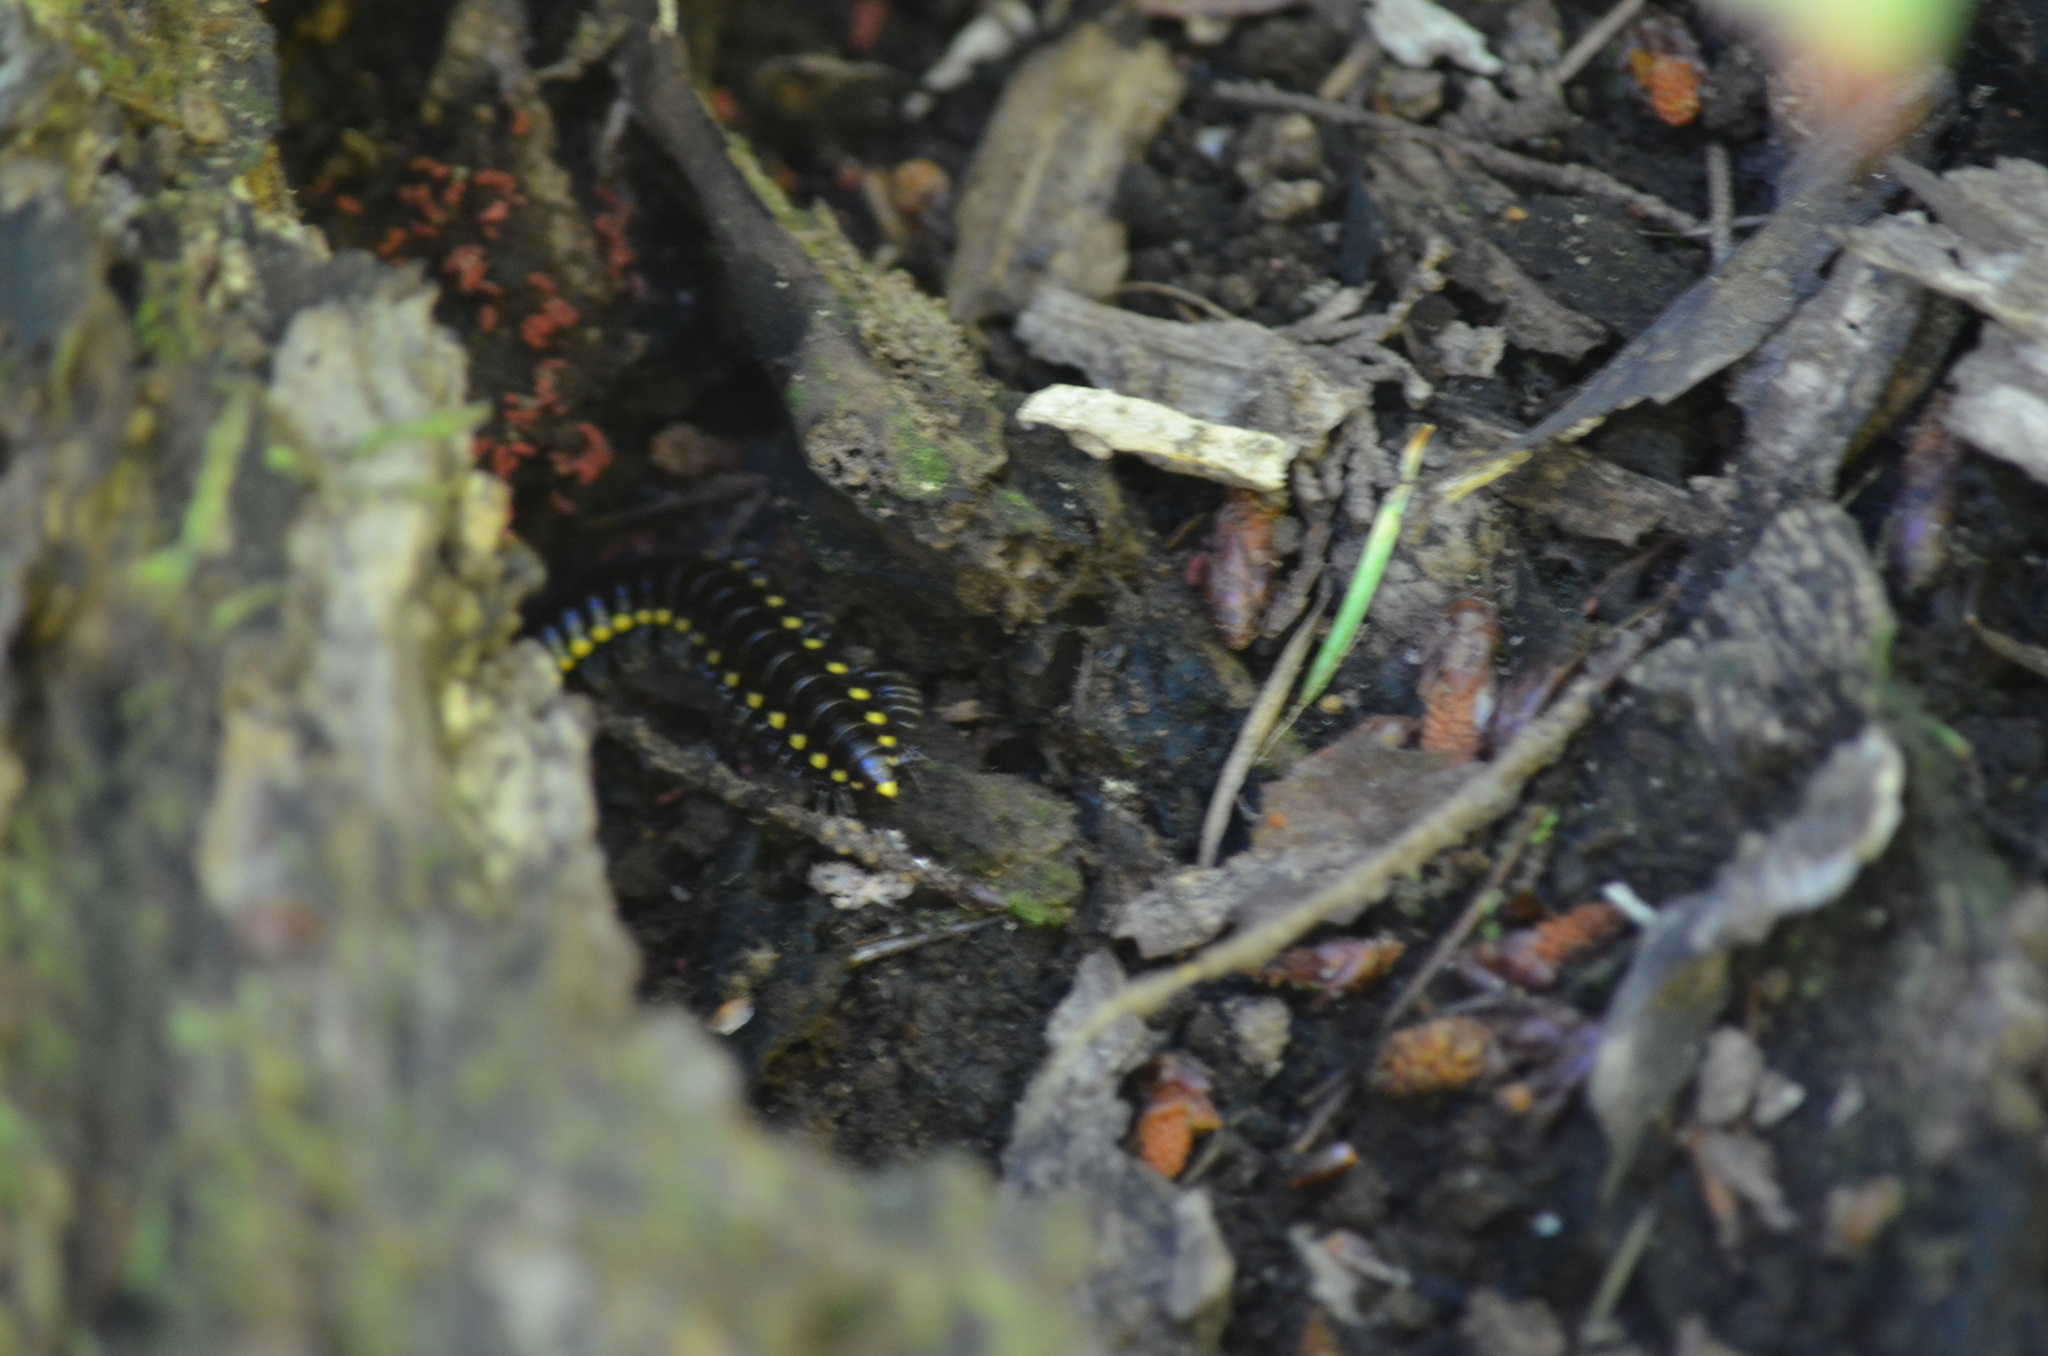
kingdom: Animalia
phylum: Arthropoda
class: Diplopoda
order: Polydesmida
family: Xystodesmidae
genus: Harpaphe
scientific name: Harpaphe haydeniana
